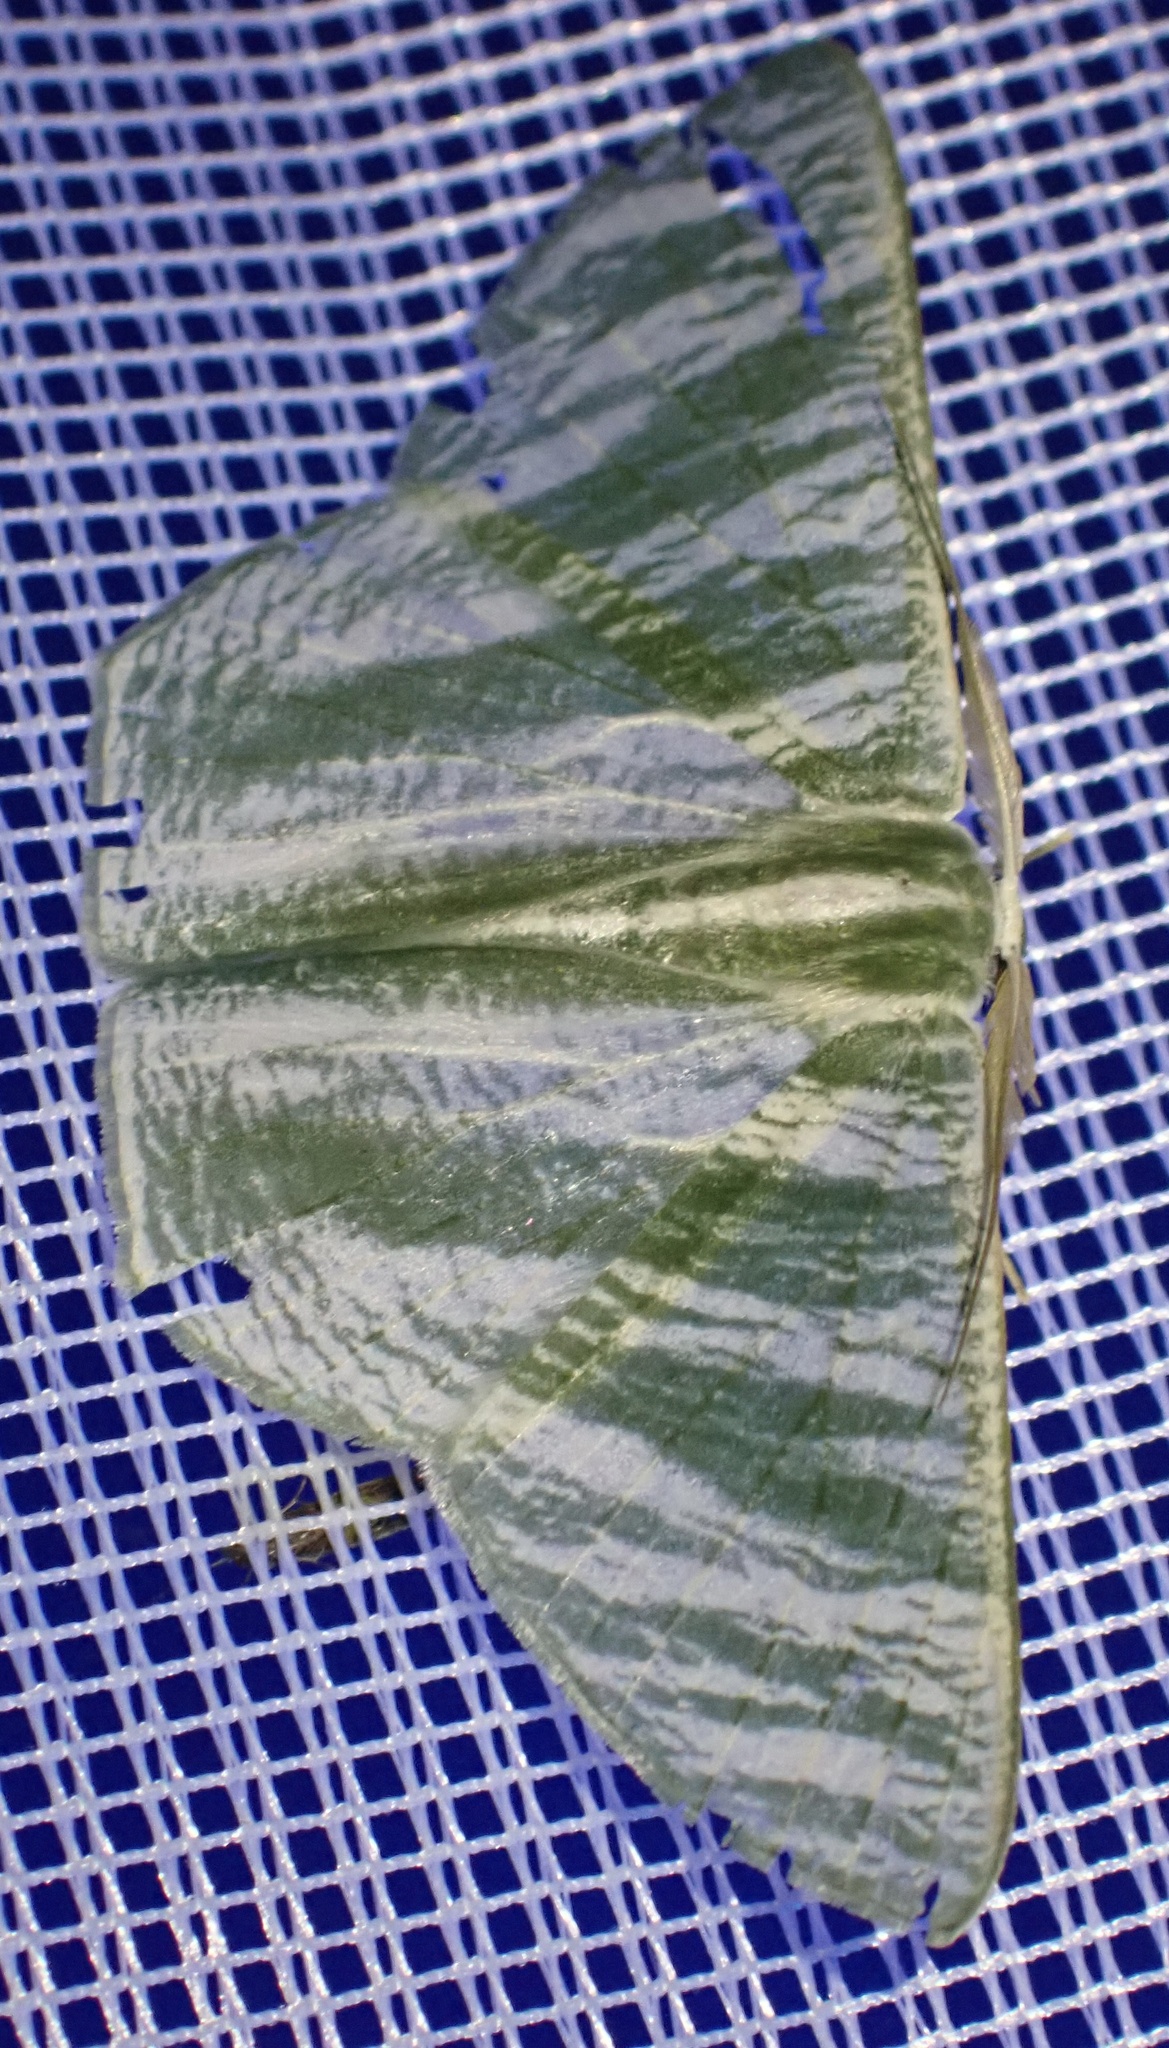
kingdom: Animalia
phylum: Arthropoda
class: Insecta
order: Lepidoptera
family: Geometridae
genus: Thalassodes
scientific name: Thalassodes nivestrota
